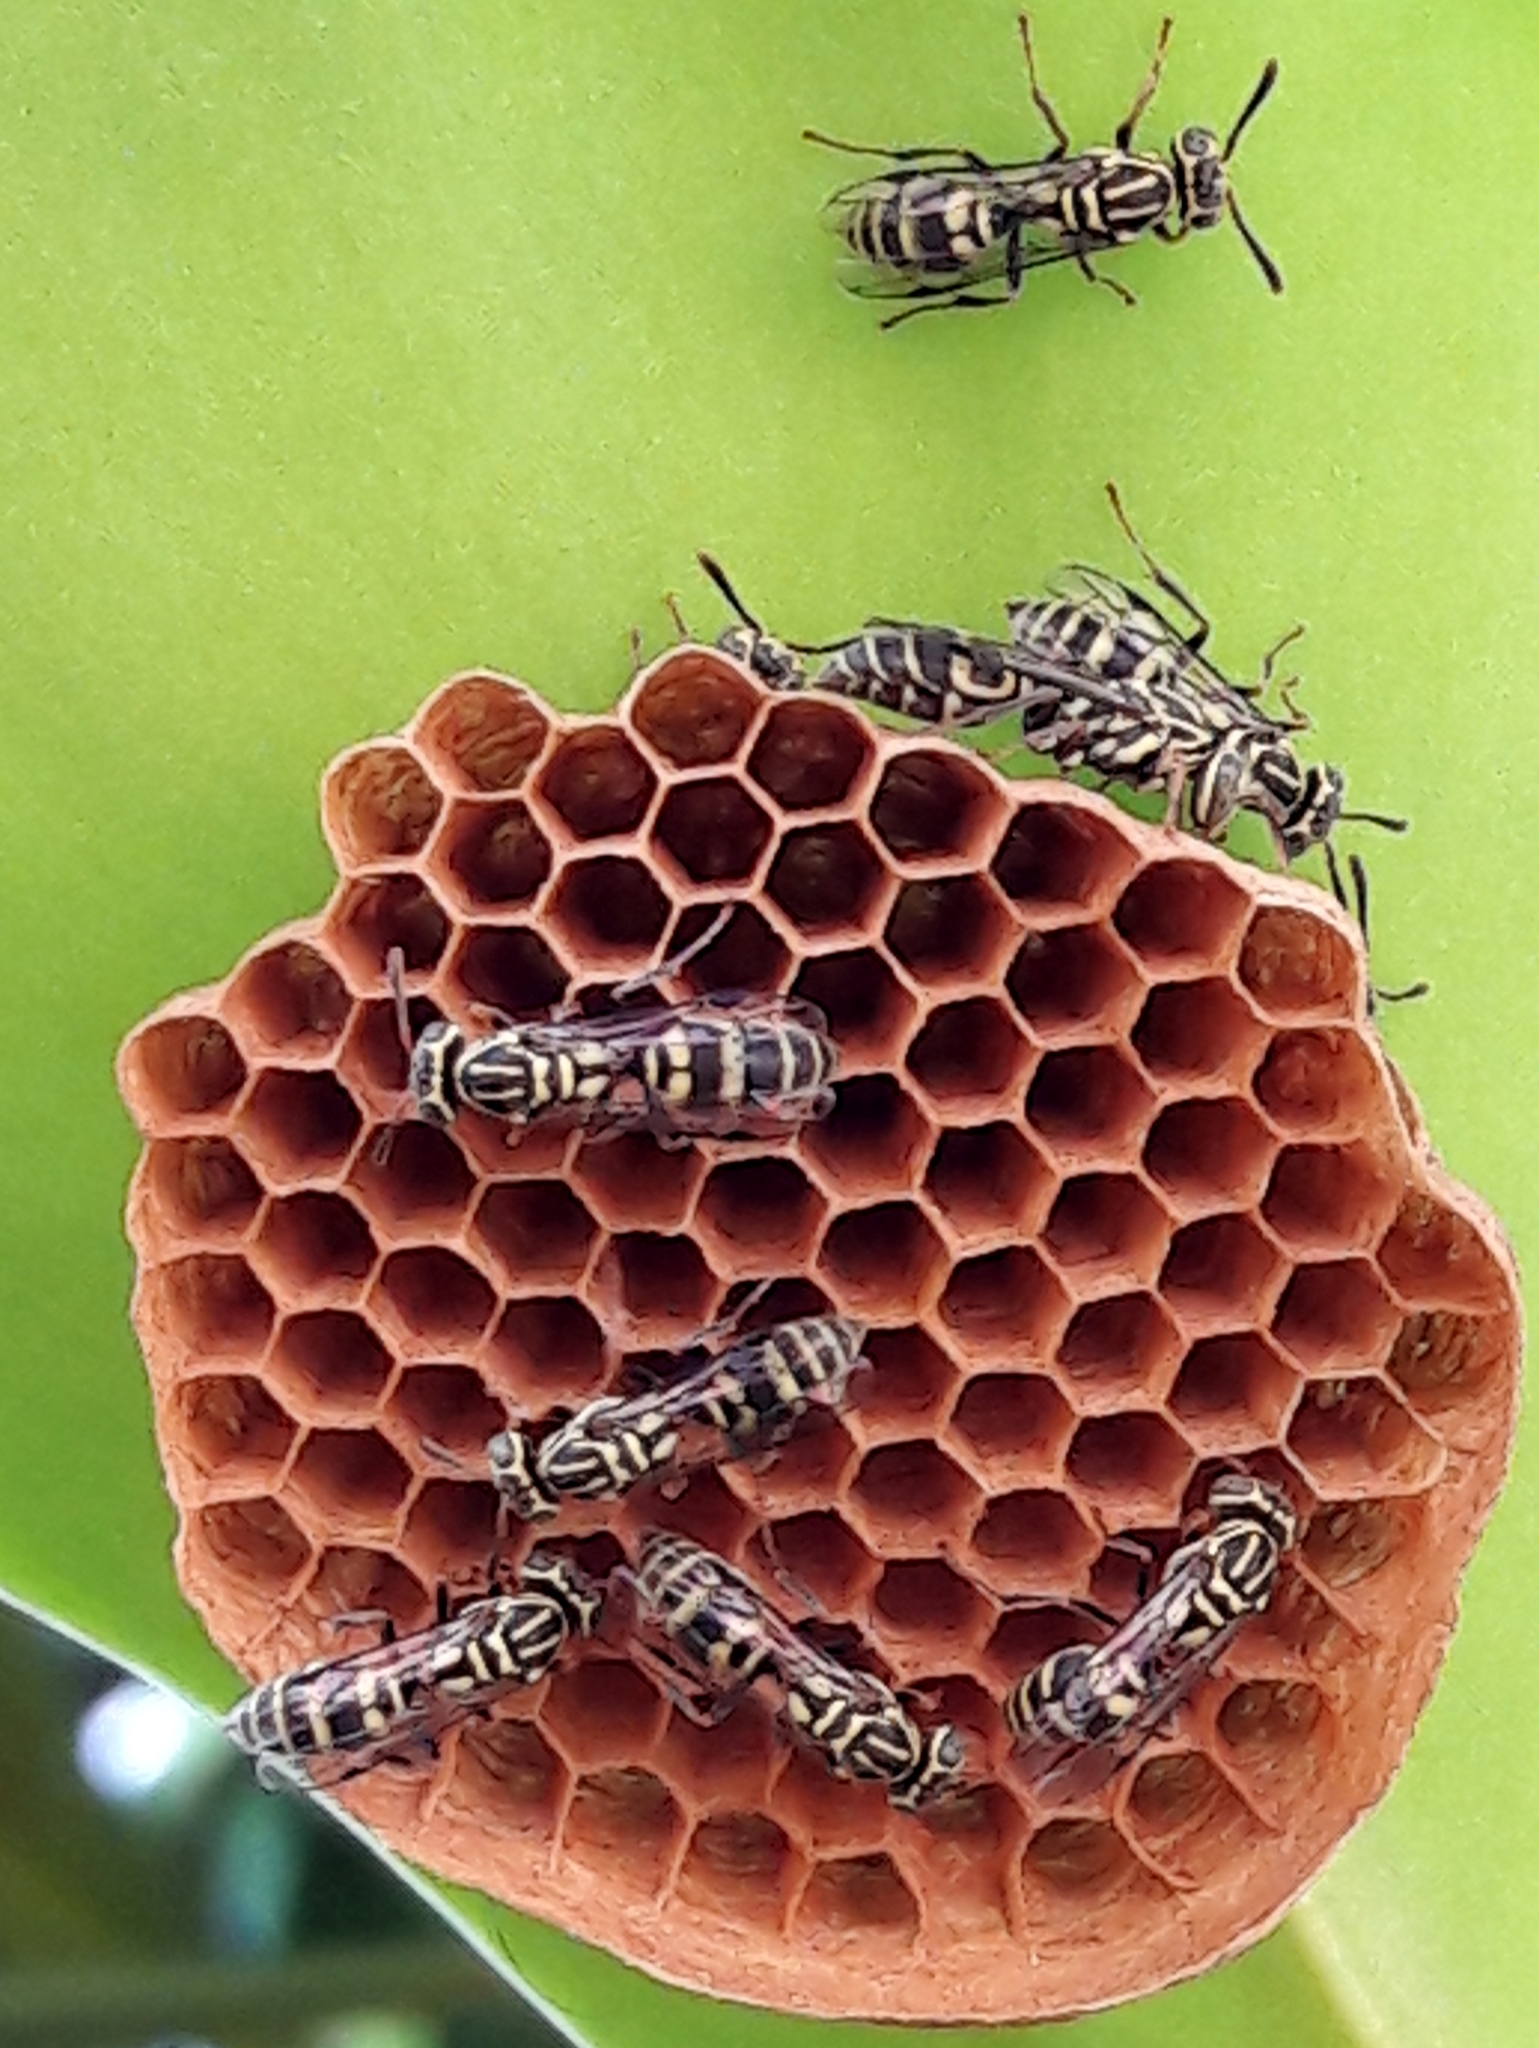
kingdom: Animalia
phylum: Arthropoda
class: Insecta
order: Hymenoptera
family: Vespidae
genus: Protopolybia
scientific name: Protopolybia exigua
